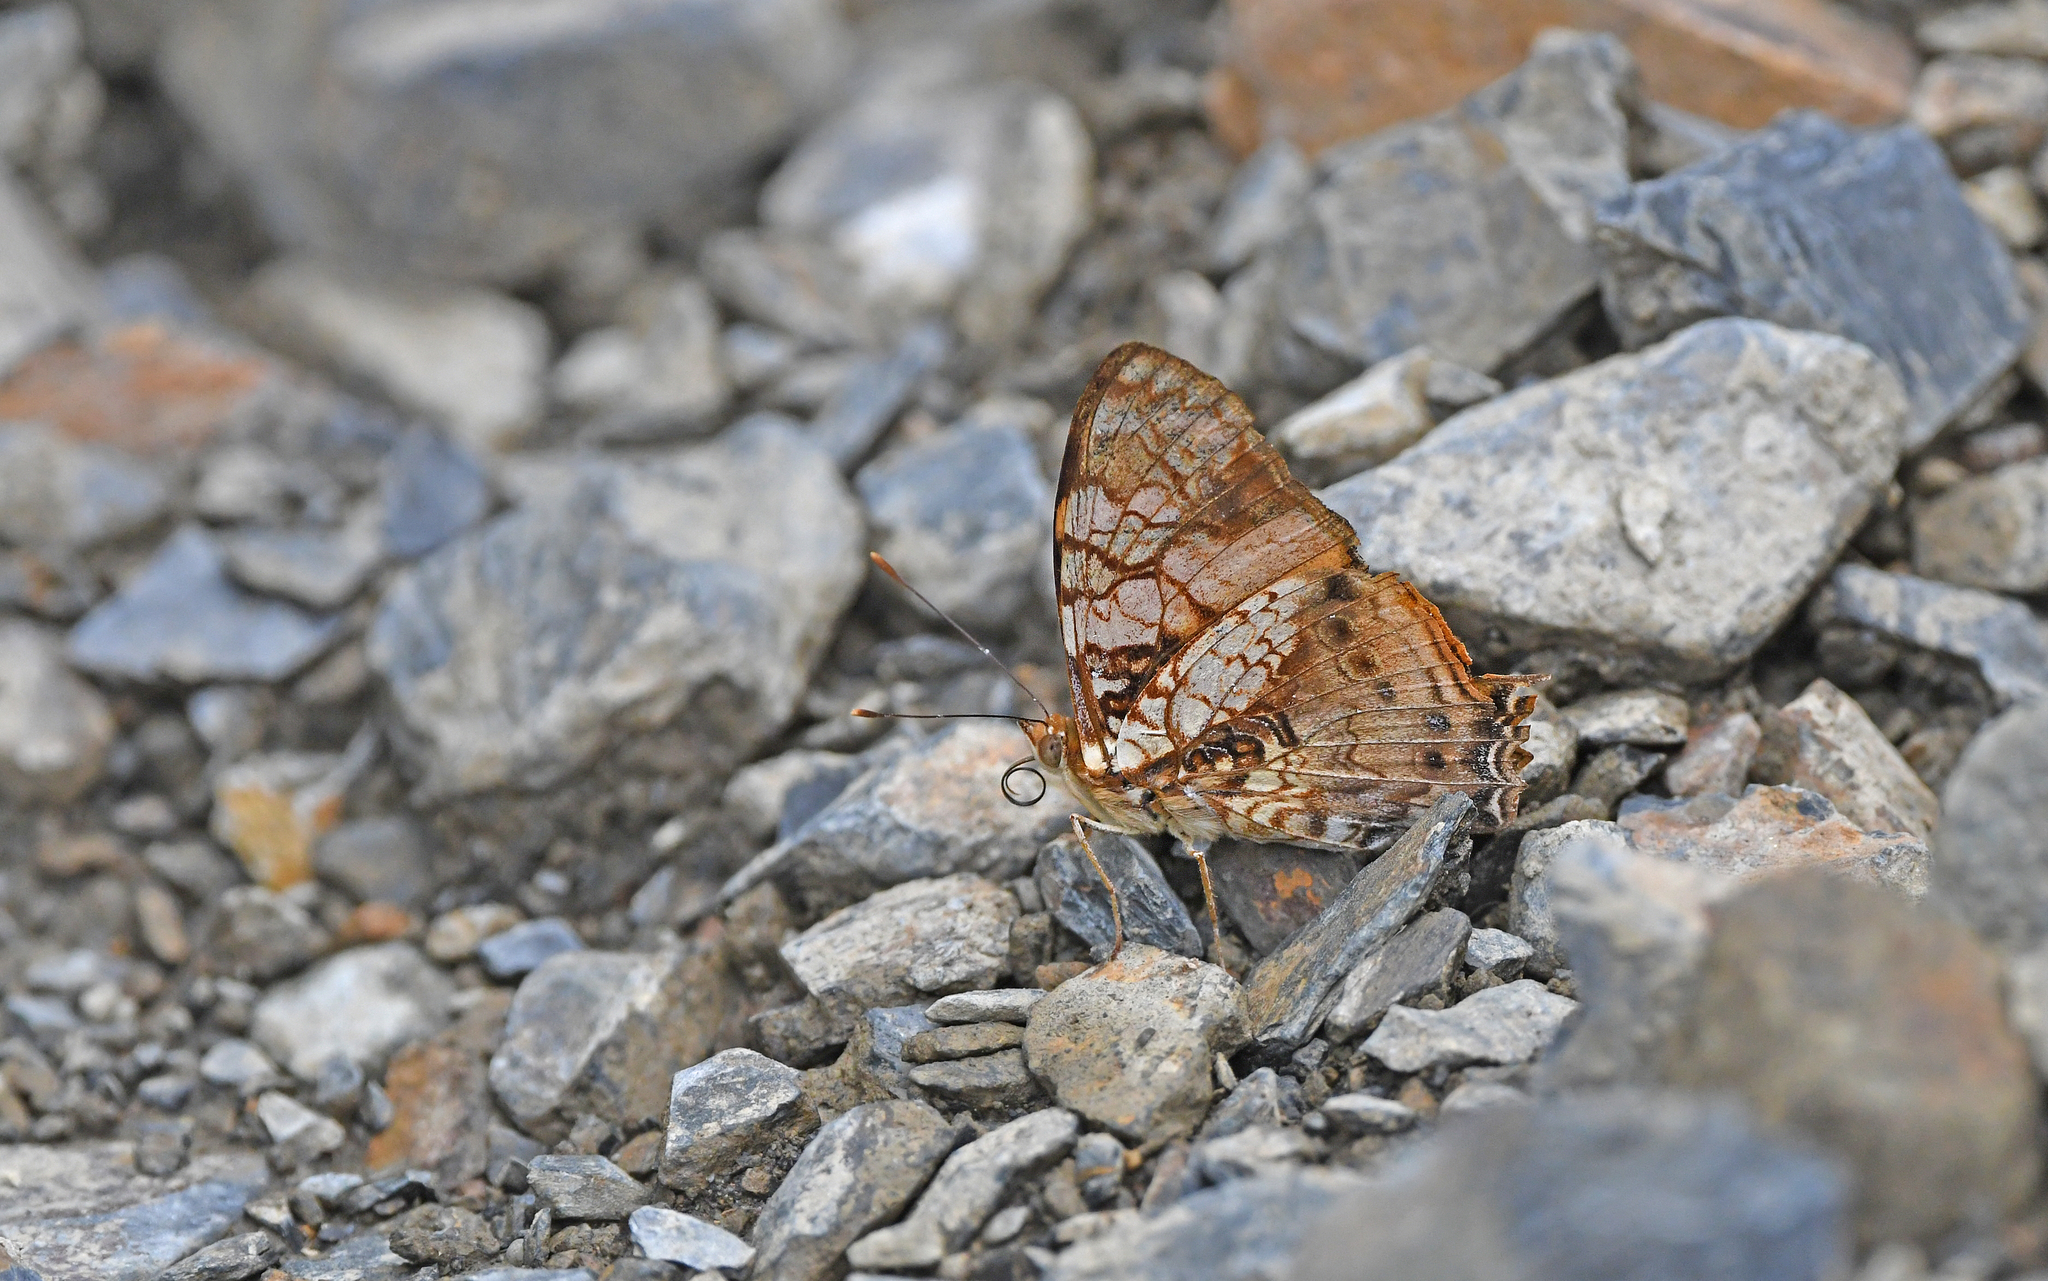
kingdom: Animalia
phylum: Arthropoda
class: Insecta
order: Lepidoptera
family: Nymphalidae
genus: Hypanartia
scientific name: Hypanartia lethe
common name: Orange mapwing
